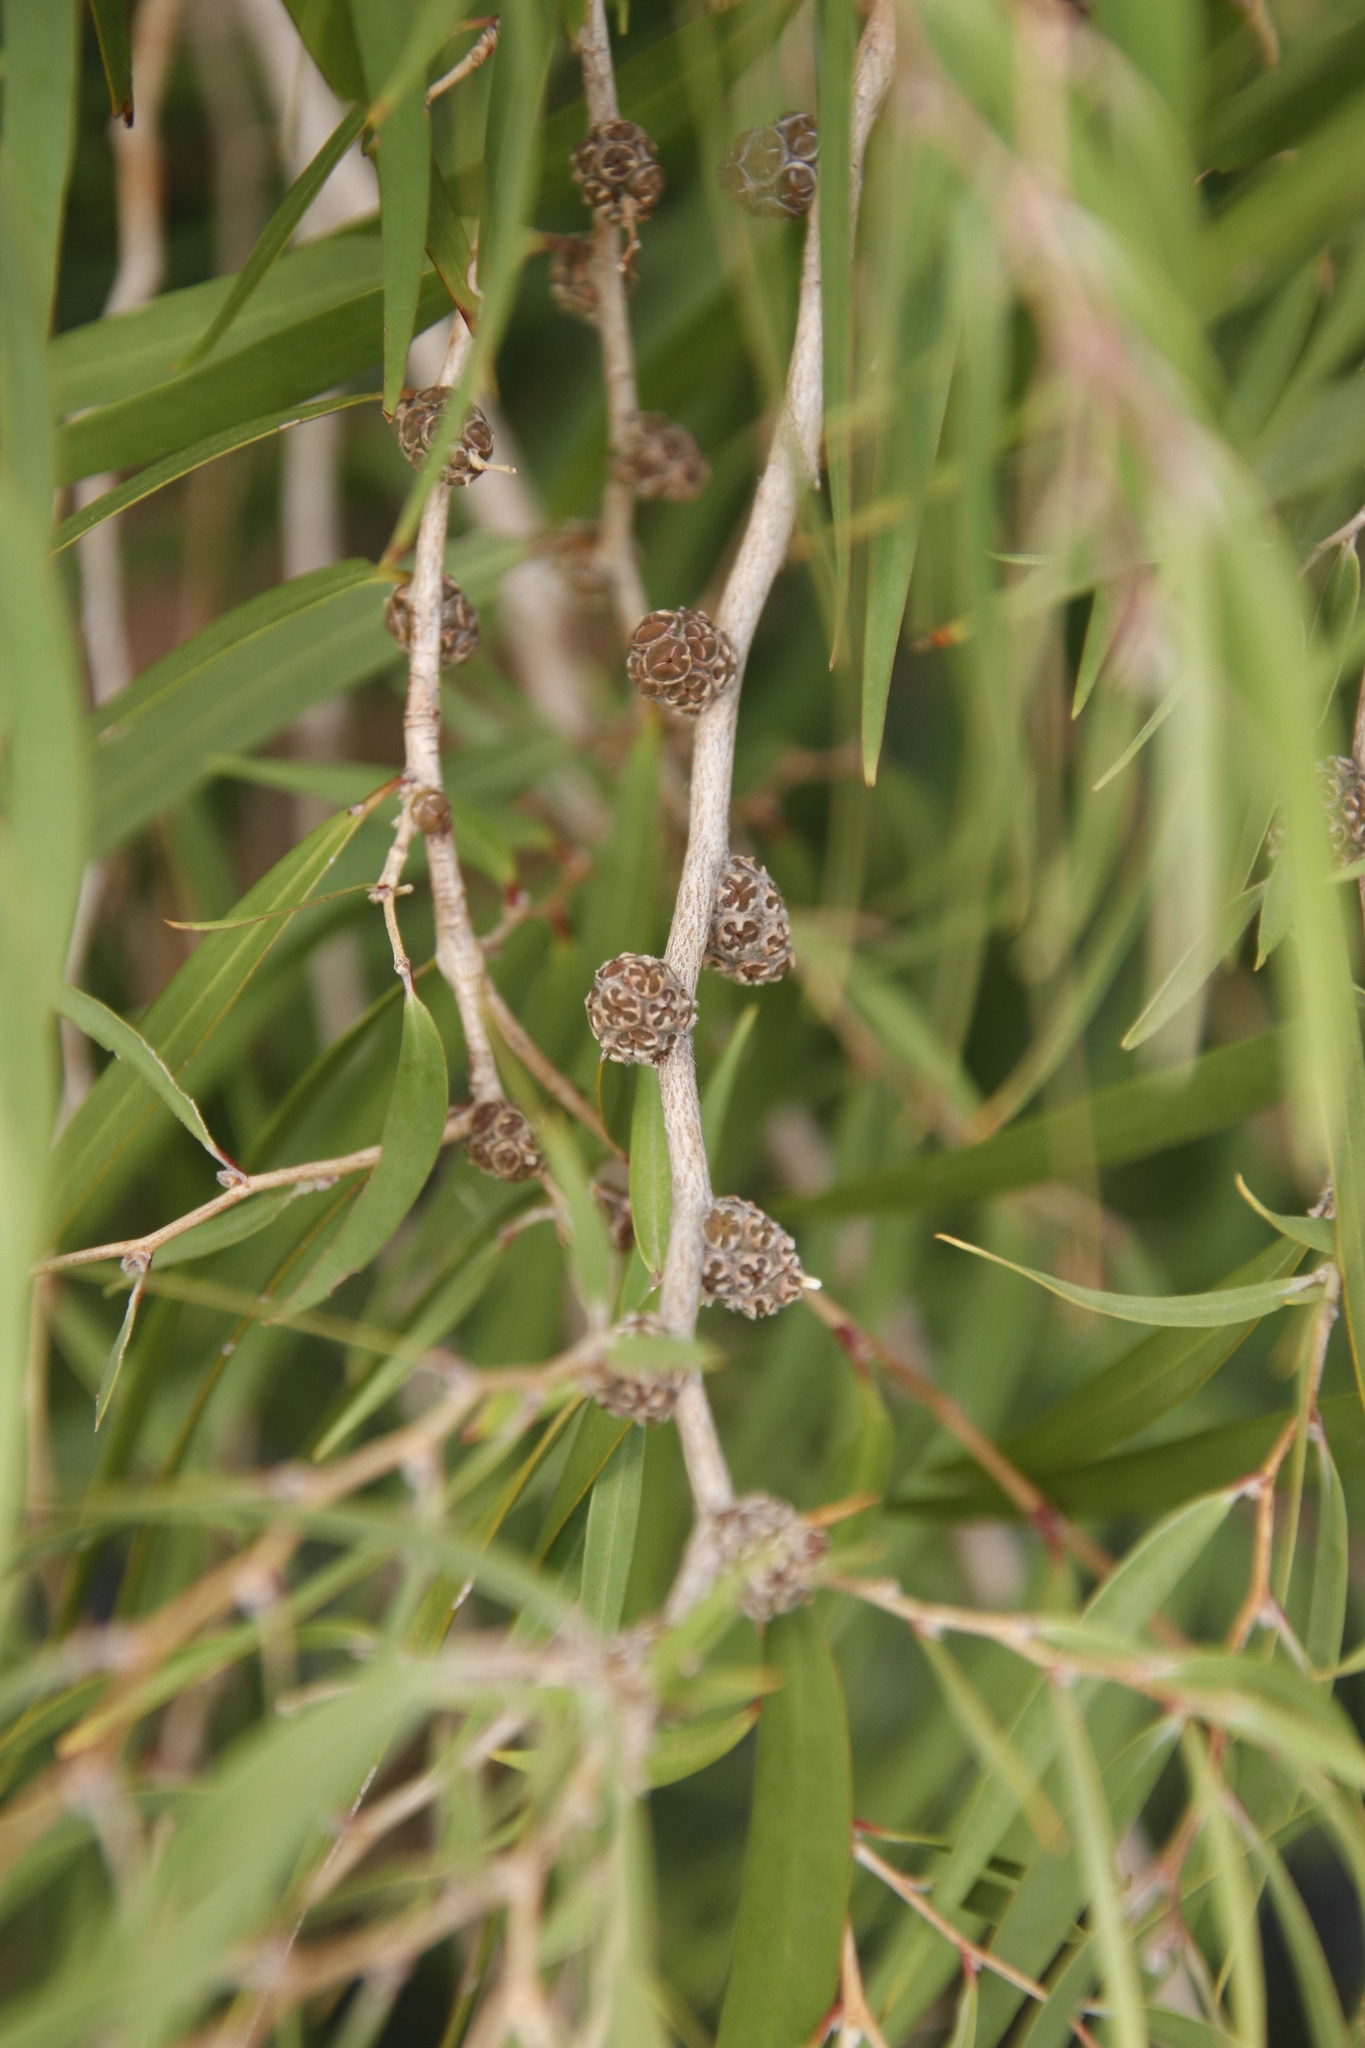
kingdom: Plantae
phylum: Tracheophyta
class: Magnoliopsida
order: Myrtales
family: Myrtaceae
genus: Agonis
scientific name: Agonis flexuosa
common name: Willow myrtle
